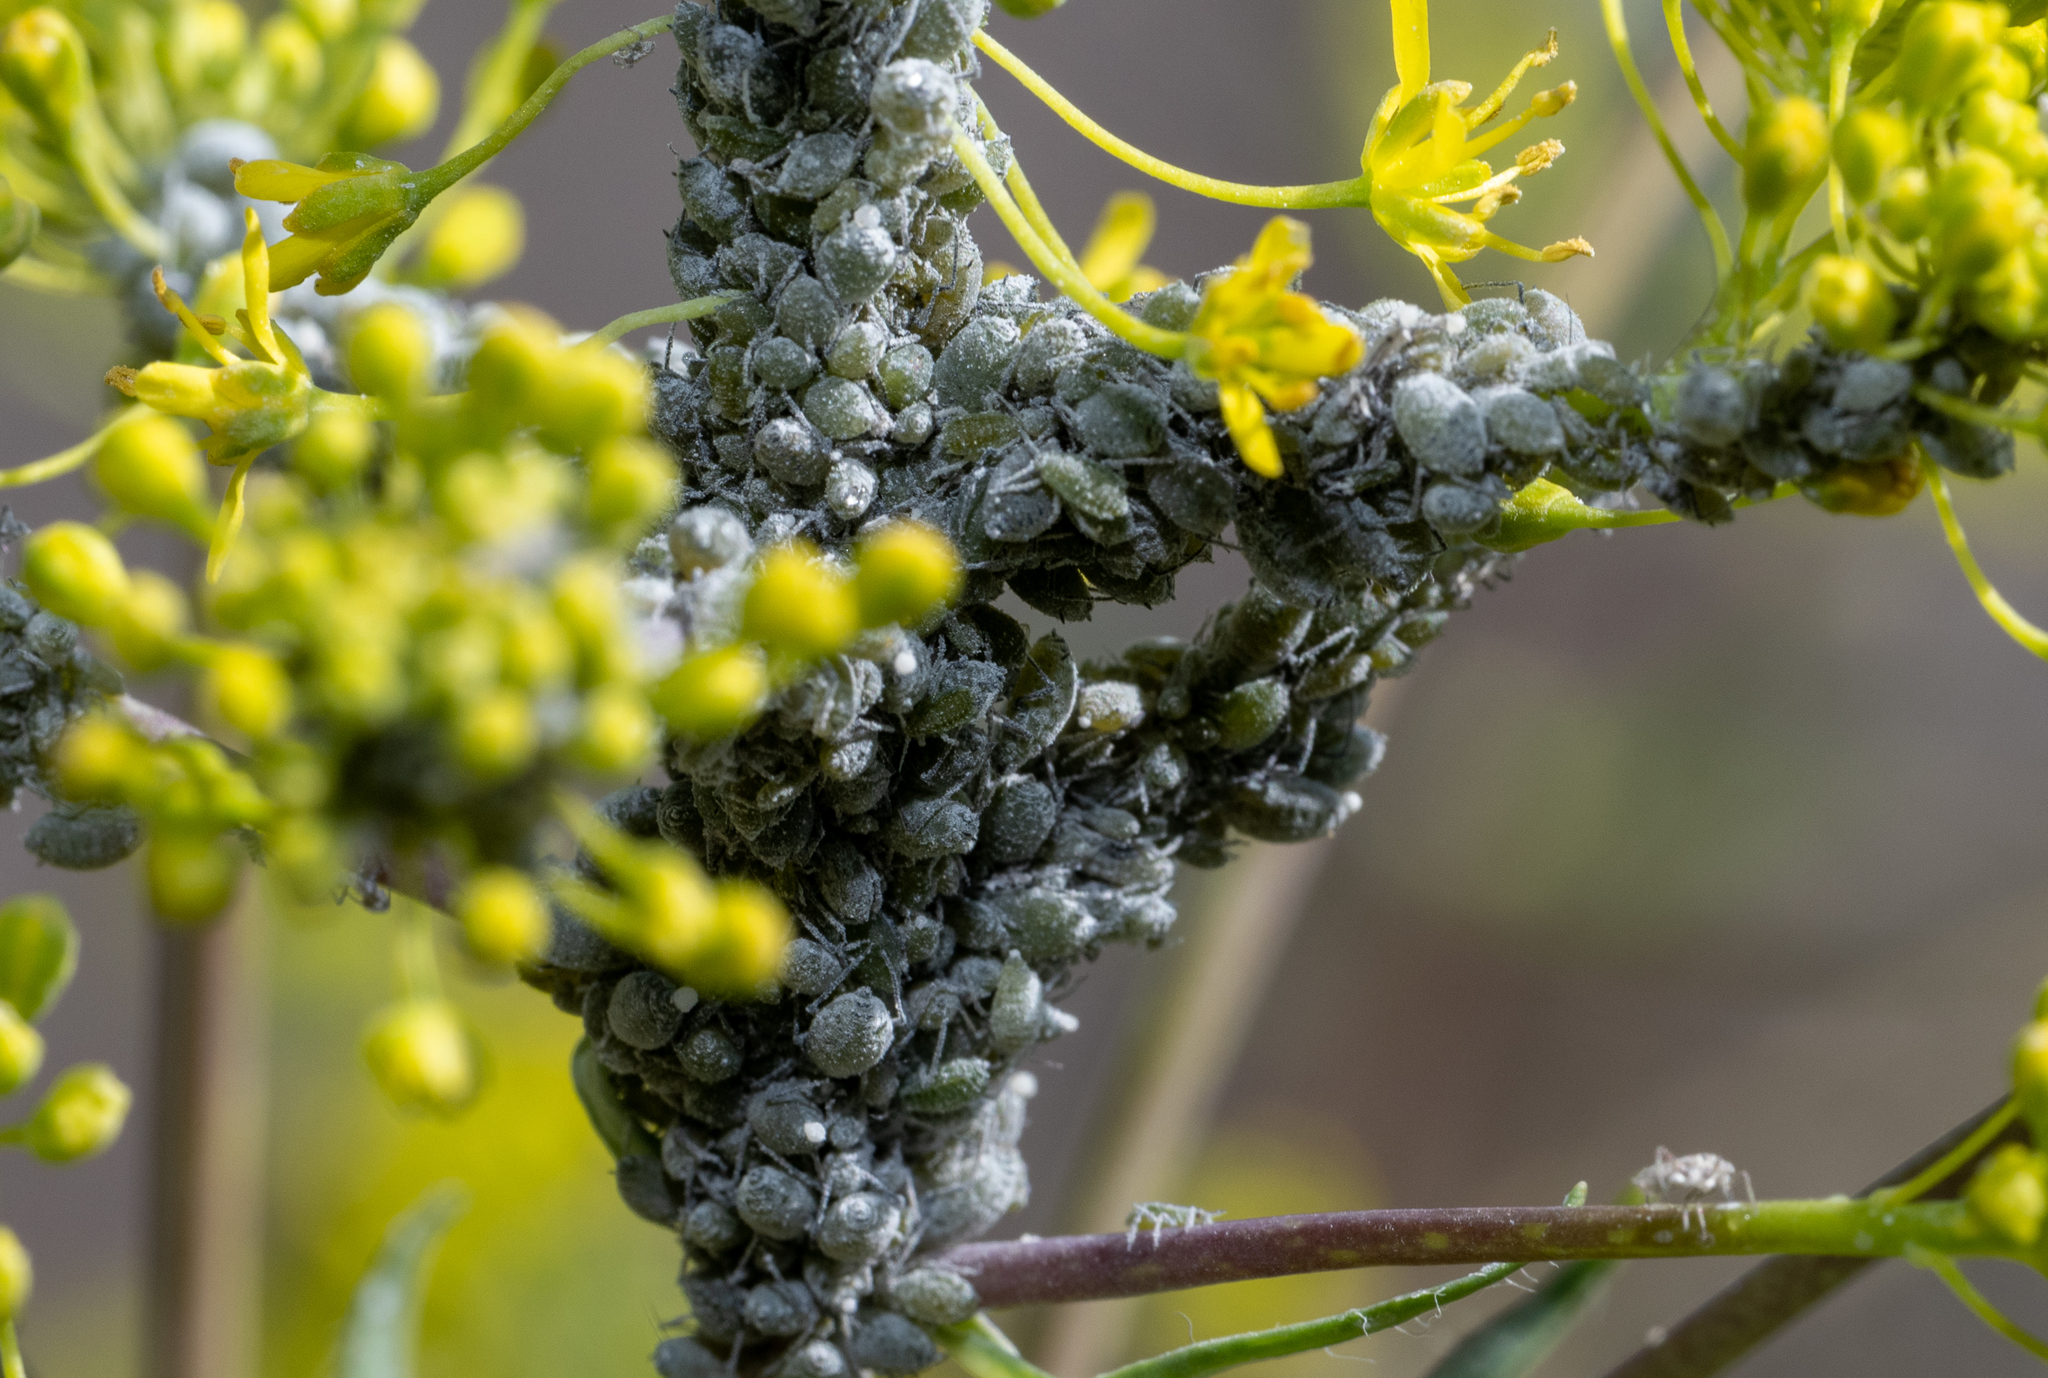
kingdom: Animalia
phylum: Arthropoda
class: Insecta
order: Hemiptera
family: Aphididae
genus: Brevicoryne
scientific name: Brevicoryne brassicae
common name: Cabbage aphid
